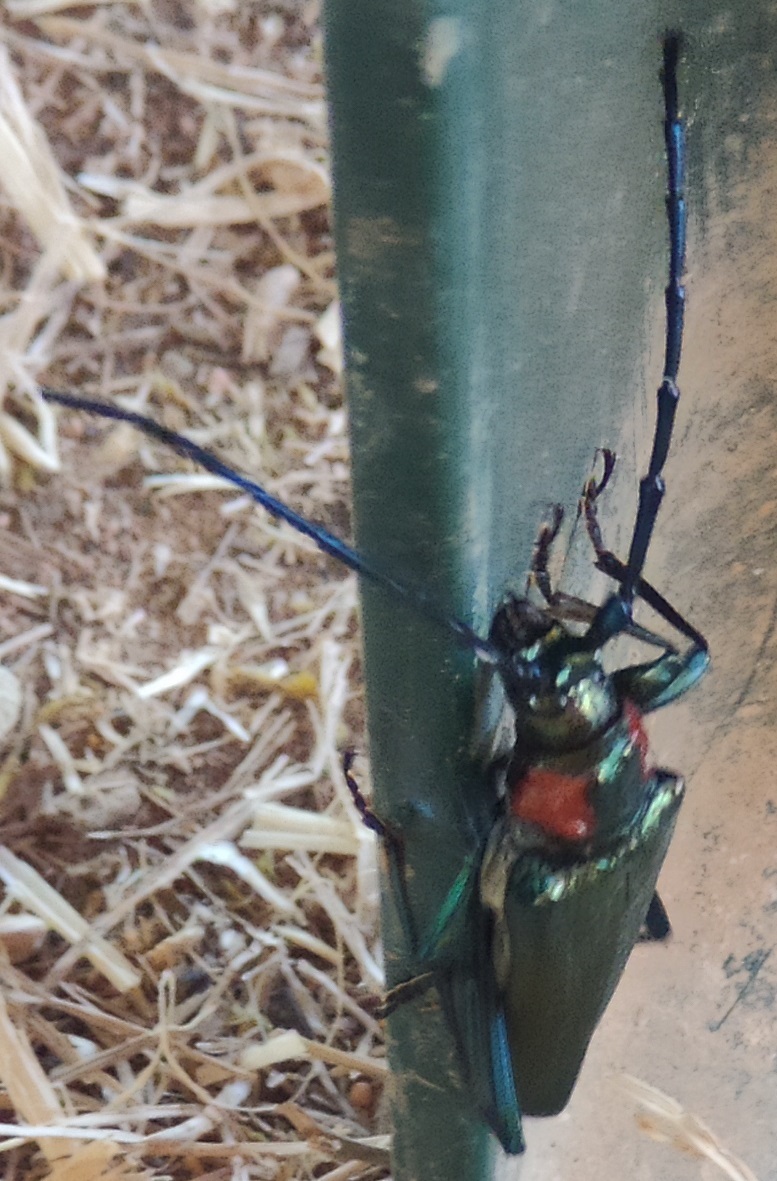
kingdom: Animalia
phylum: Arthropoda
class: Insecta
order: Coleoptera
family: Cerambycidae
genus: Aromia
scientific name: Aromia moschata
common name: Musk beetle
